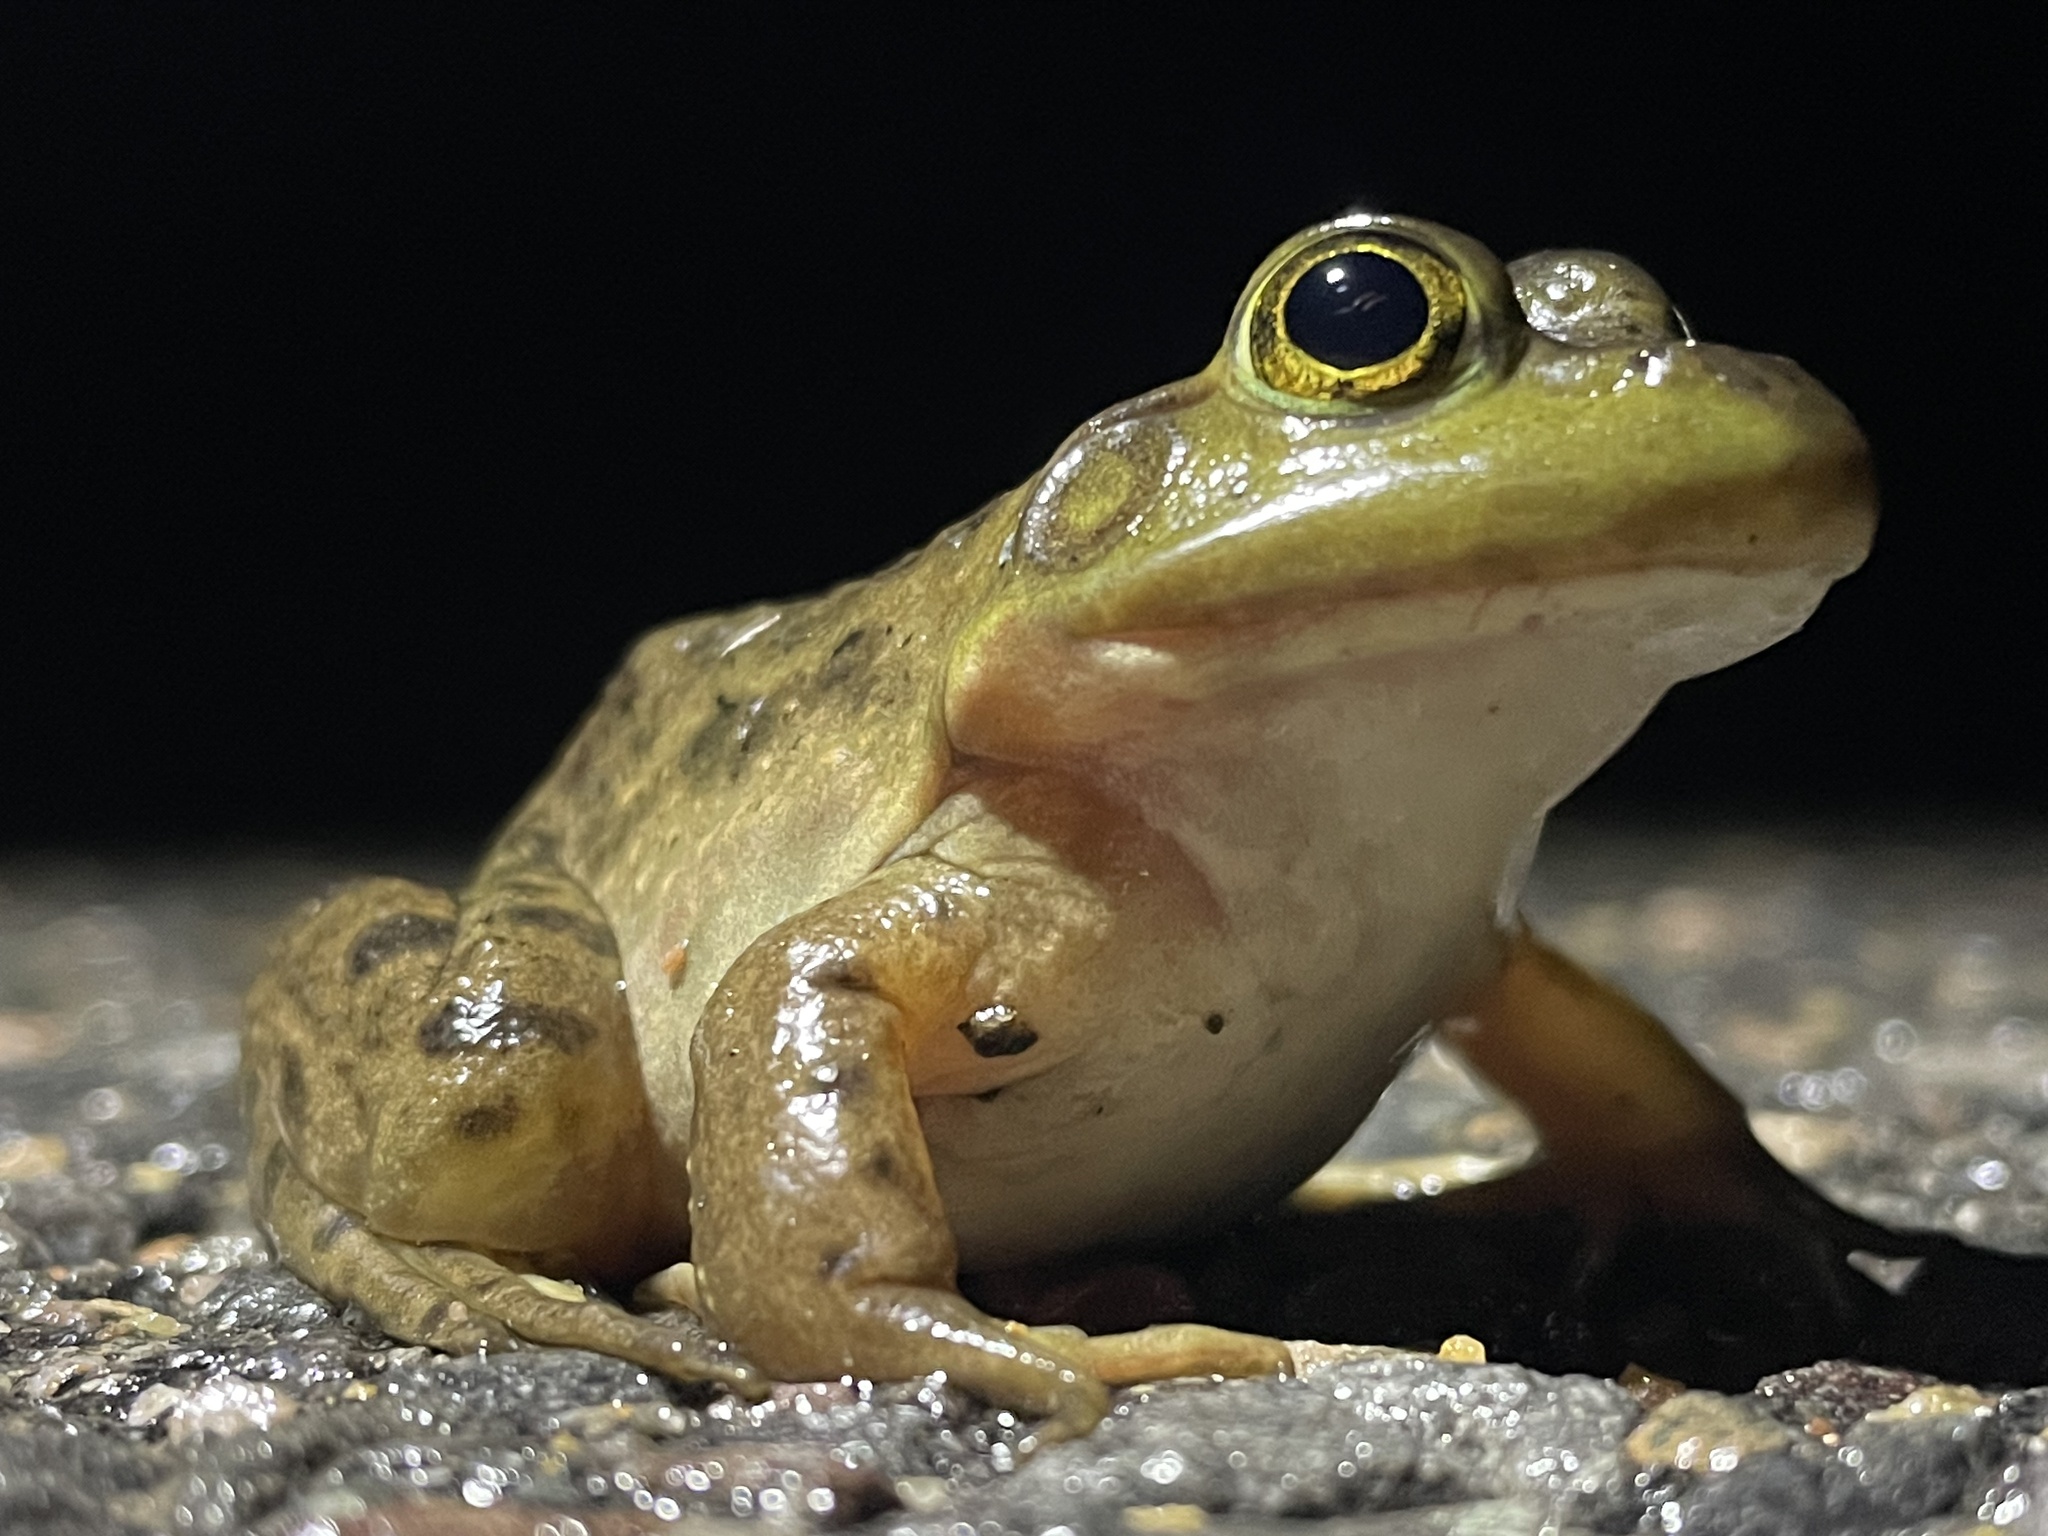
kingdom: Animalia
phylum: Chordata
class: Amphibia
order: Anura
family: Ranidae
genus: Lithobates
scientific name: Lithobates catesbeianus
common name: American bullfrog
